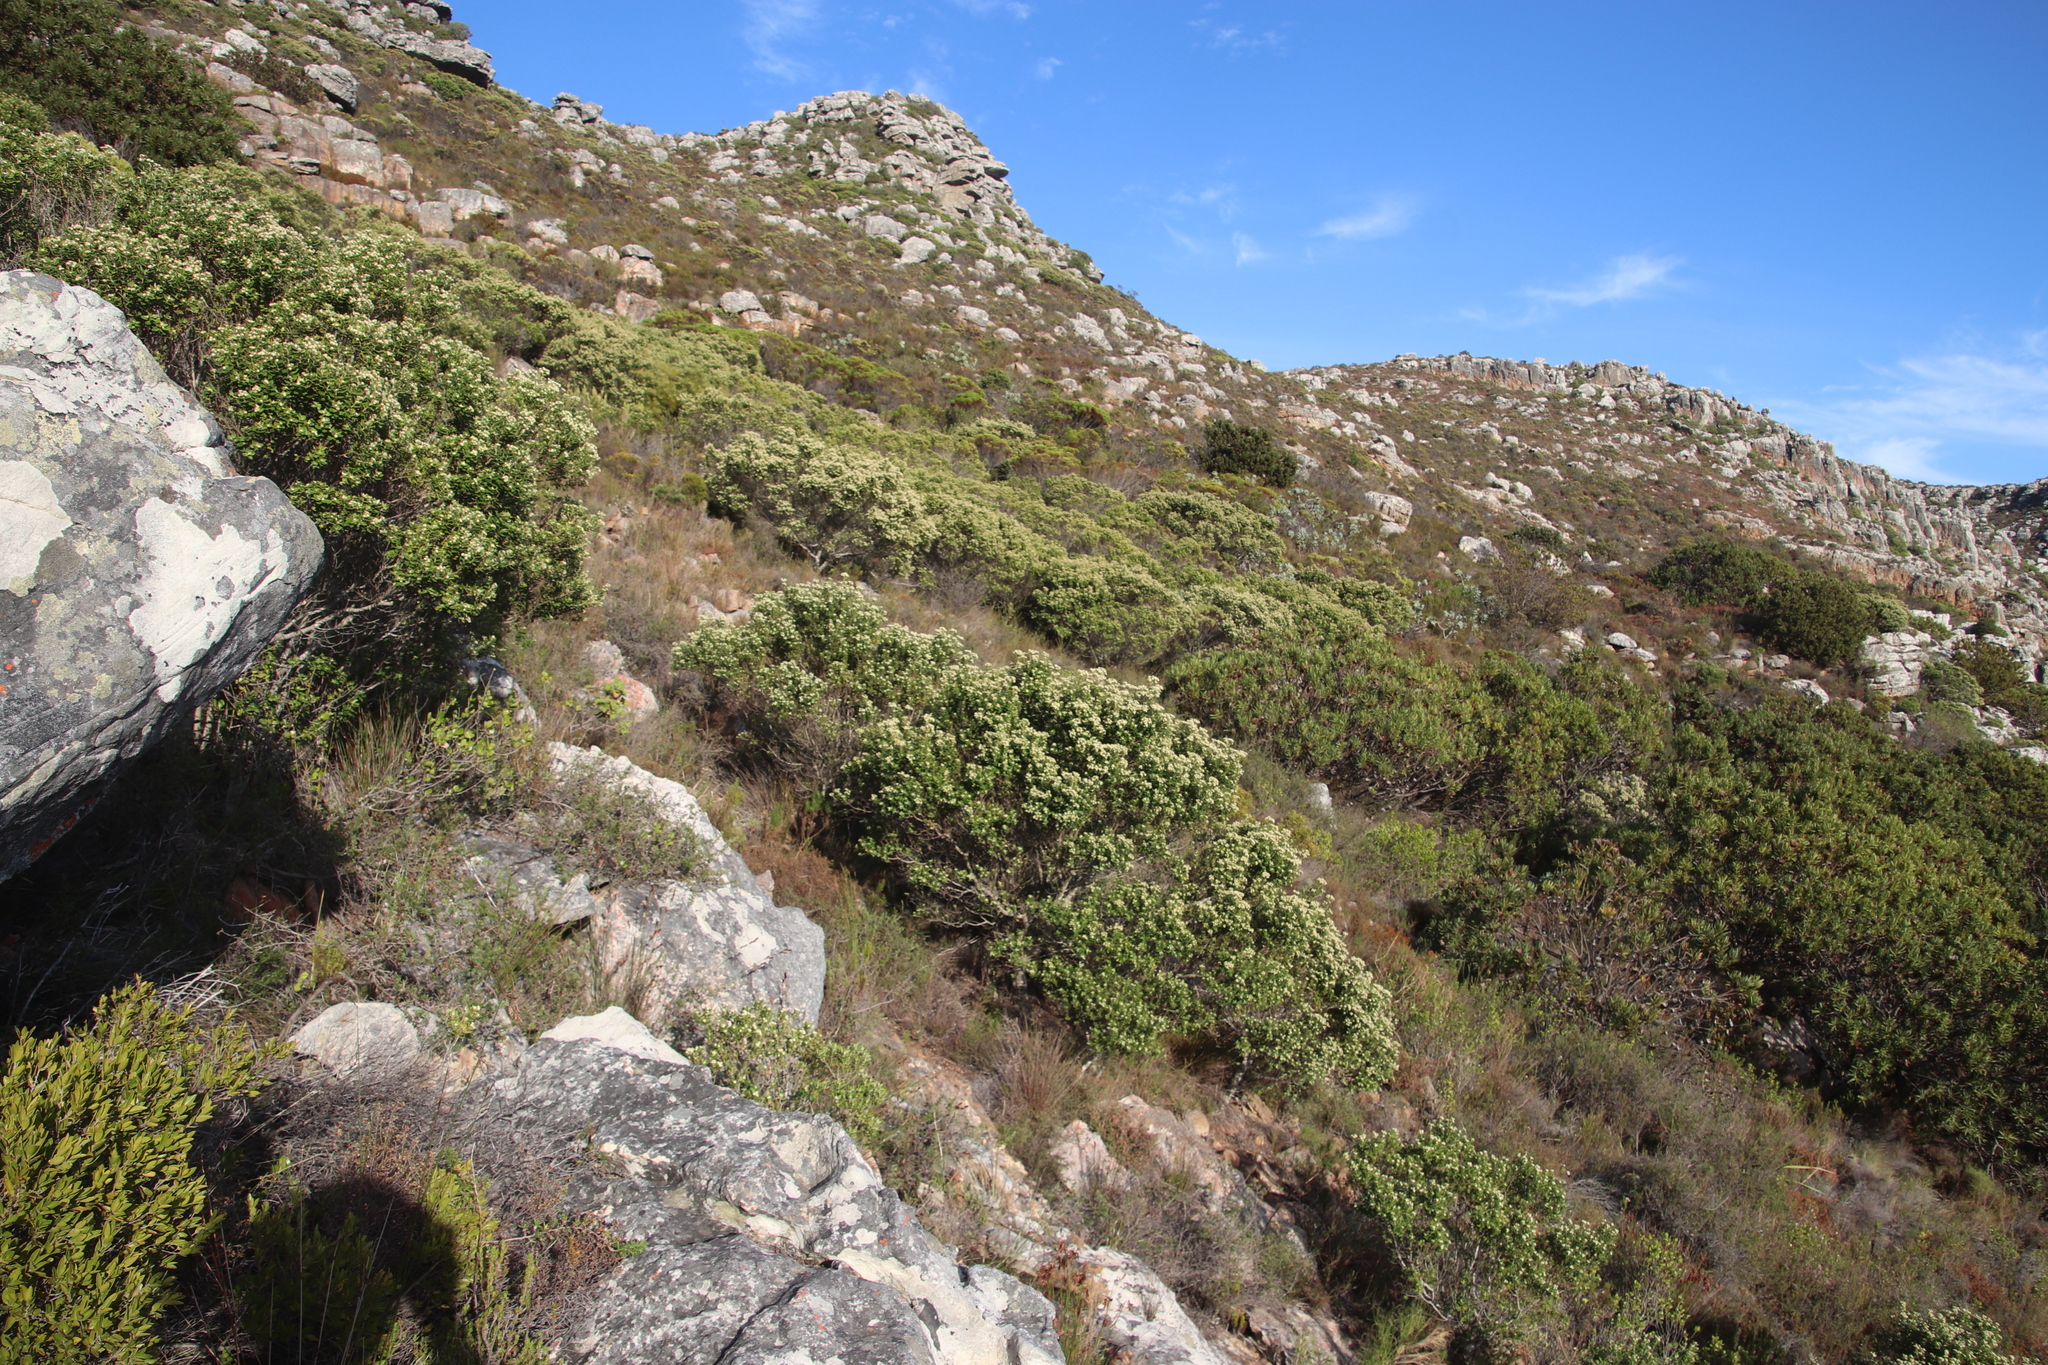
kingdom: Plantae
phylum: Tracheophyta
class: Magnoliopsida
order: Rosales
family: Rhamnaceae
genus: Phylica
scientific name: Phylica buxifolia
